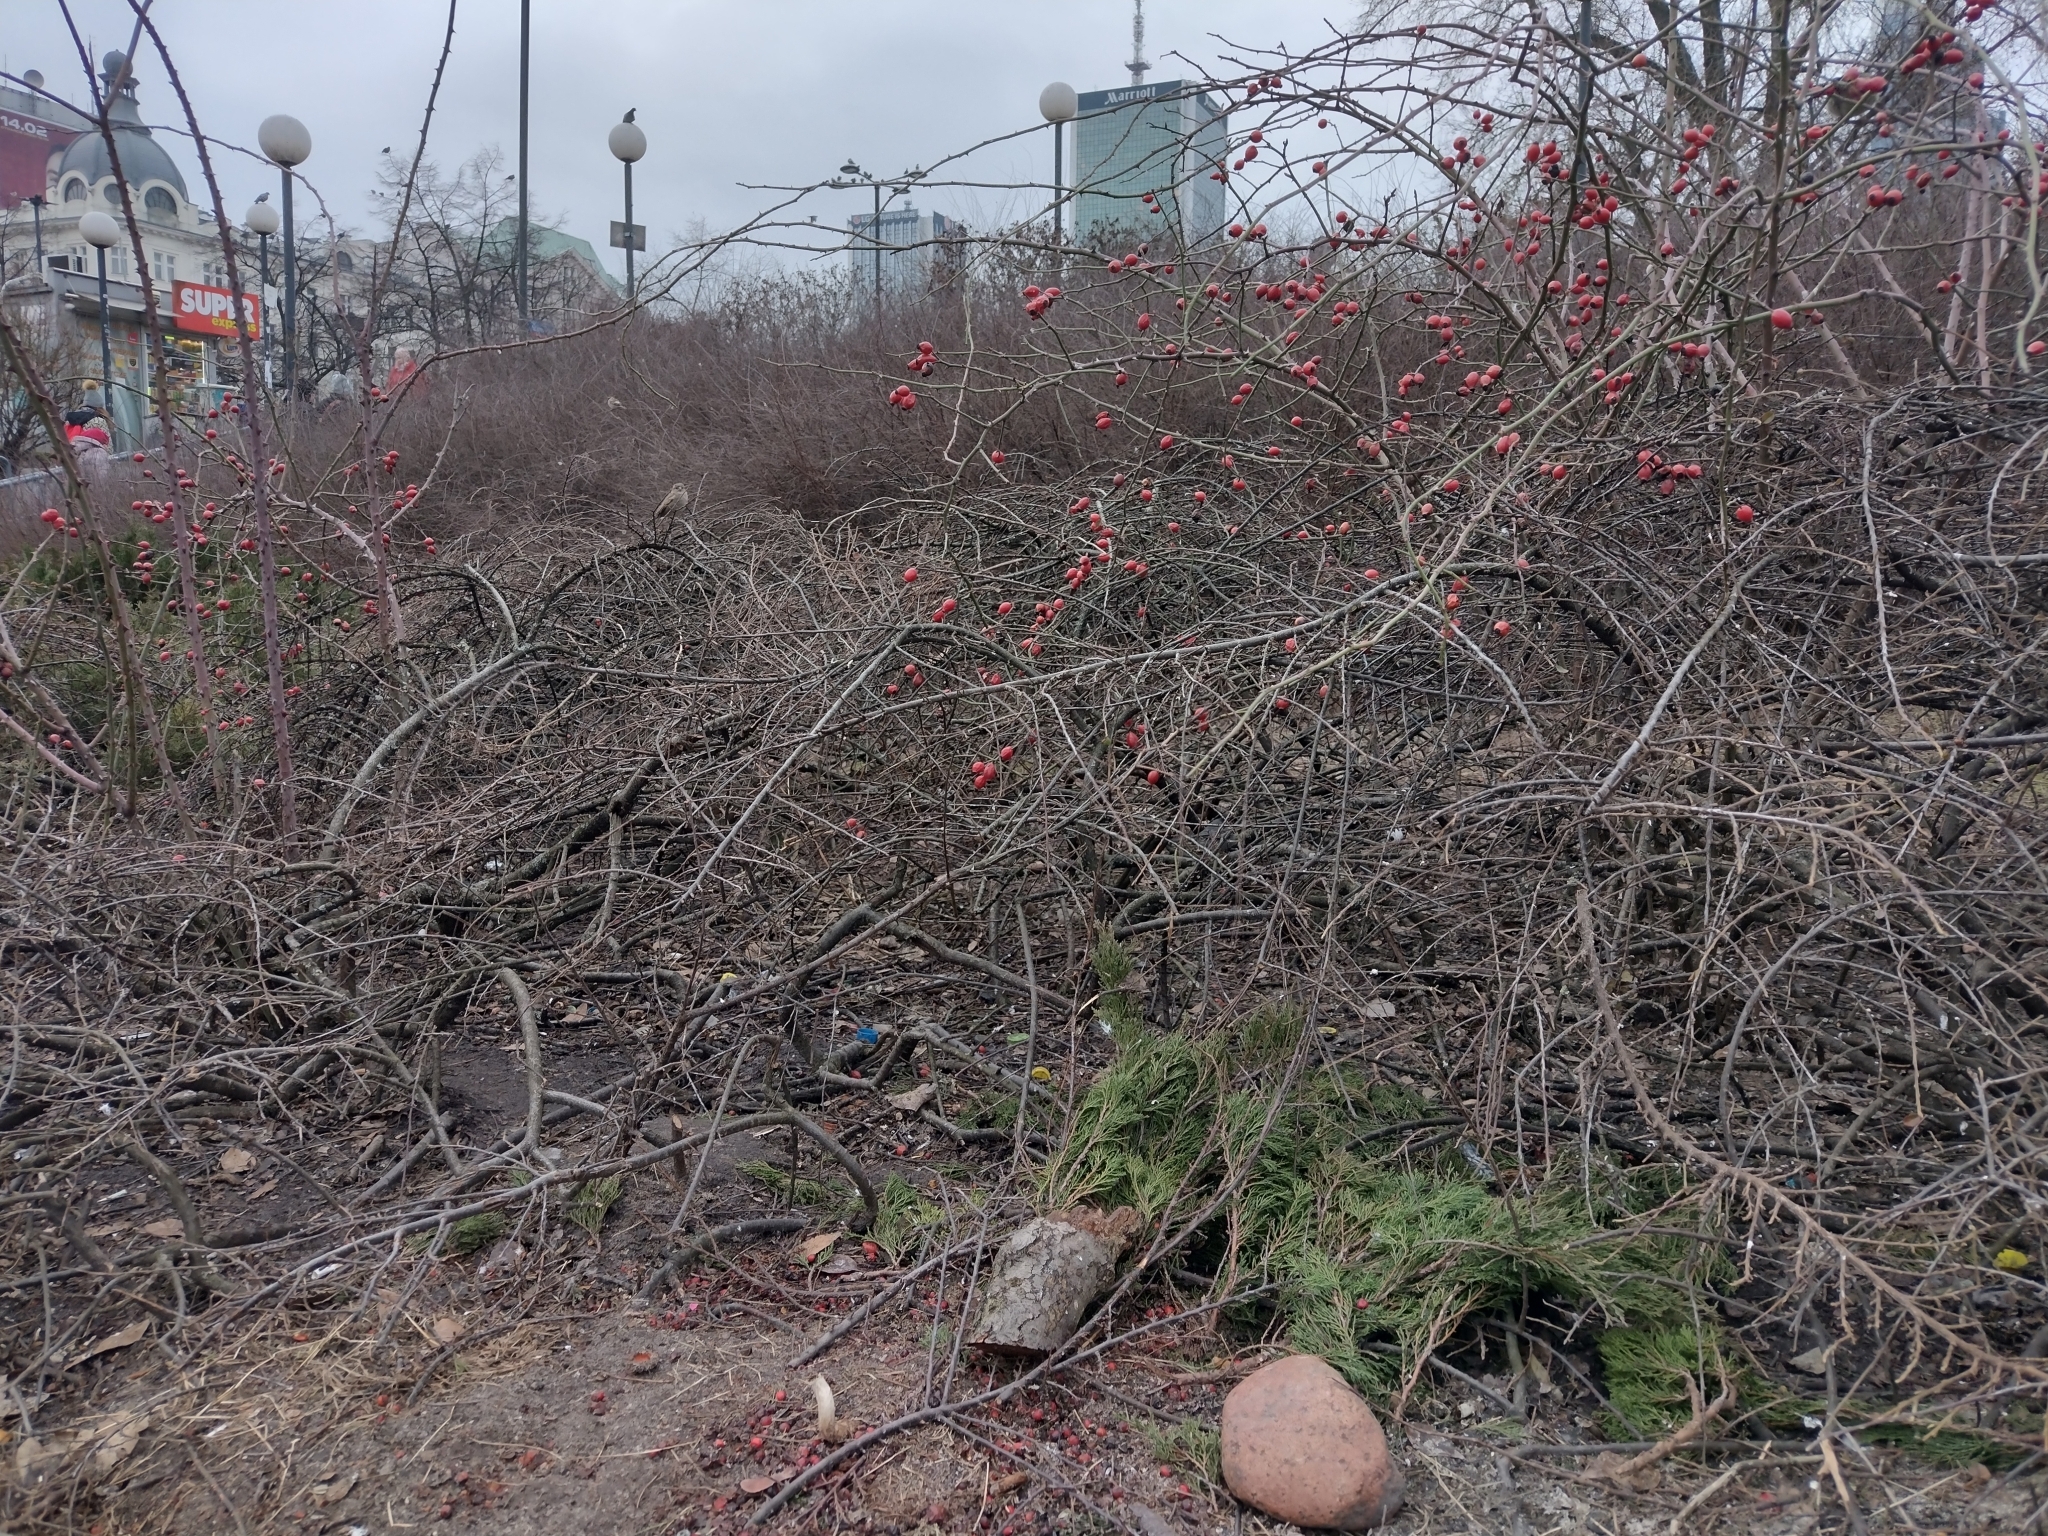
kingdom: Animalia
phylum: Chordata
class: Aves
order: Passeriformes
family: Sylviidae
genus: Curruca
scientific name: Curruca melanocephala
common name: Sardinian warbler
